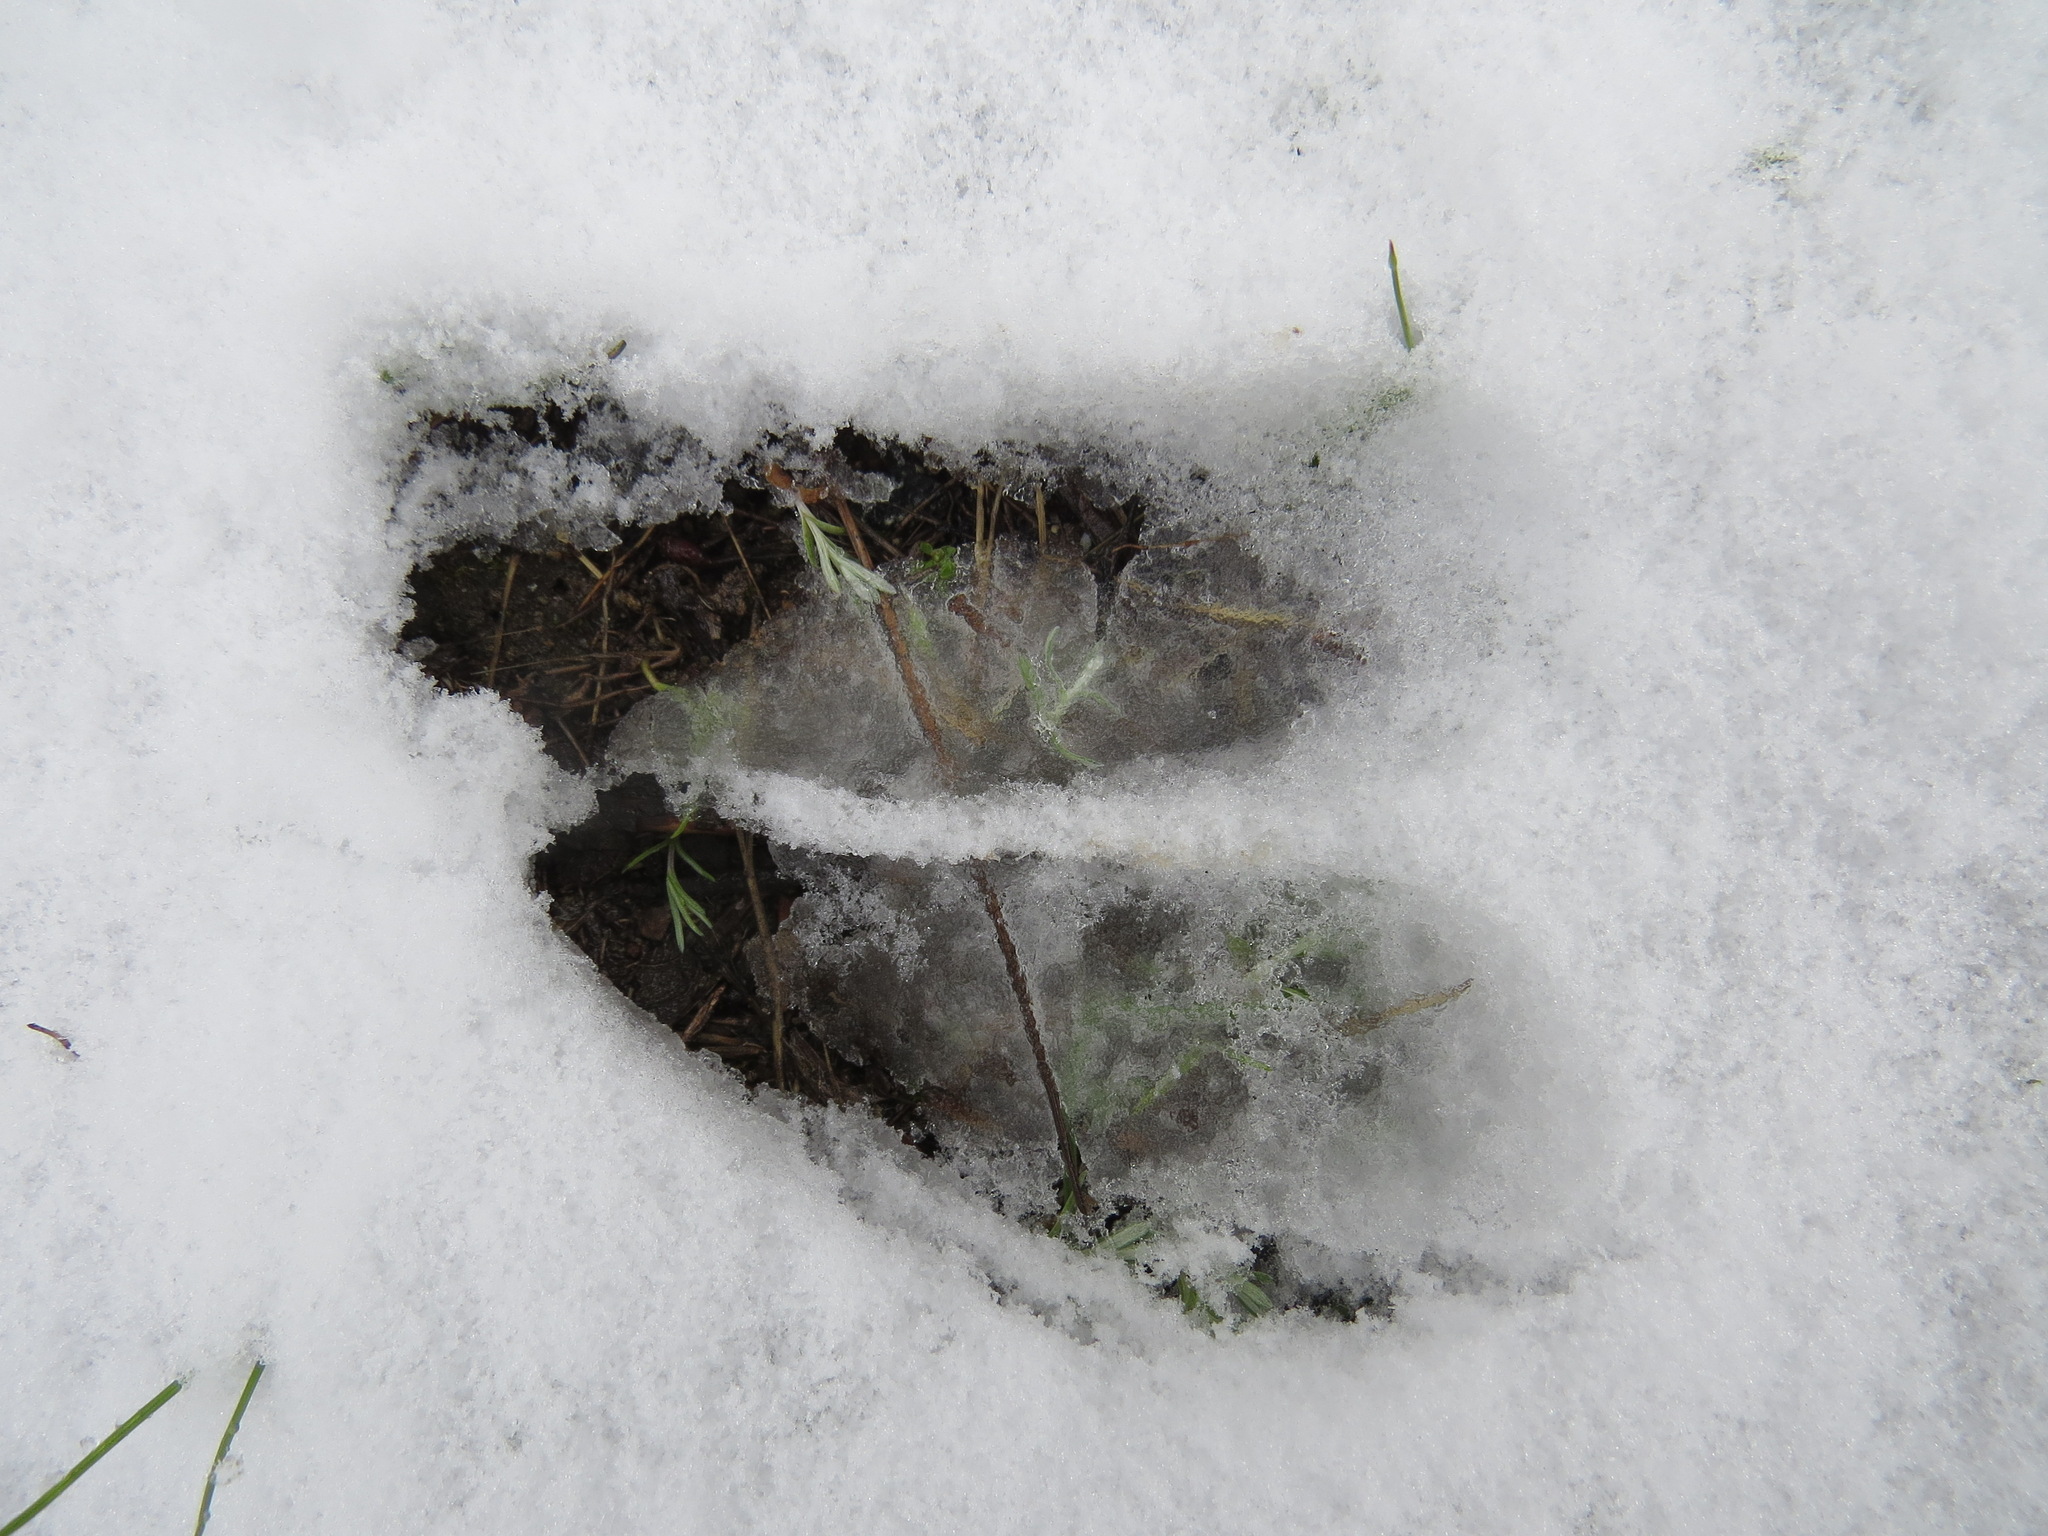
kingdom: Animalia
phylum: Chordata
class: Mammalia
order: Artiodactyla
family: Cervidae
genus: Odocoileus
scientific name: Odocoileus hemionus
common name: Mule deer
